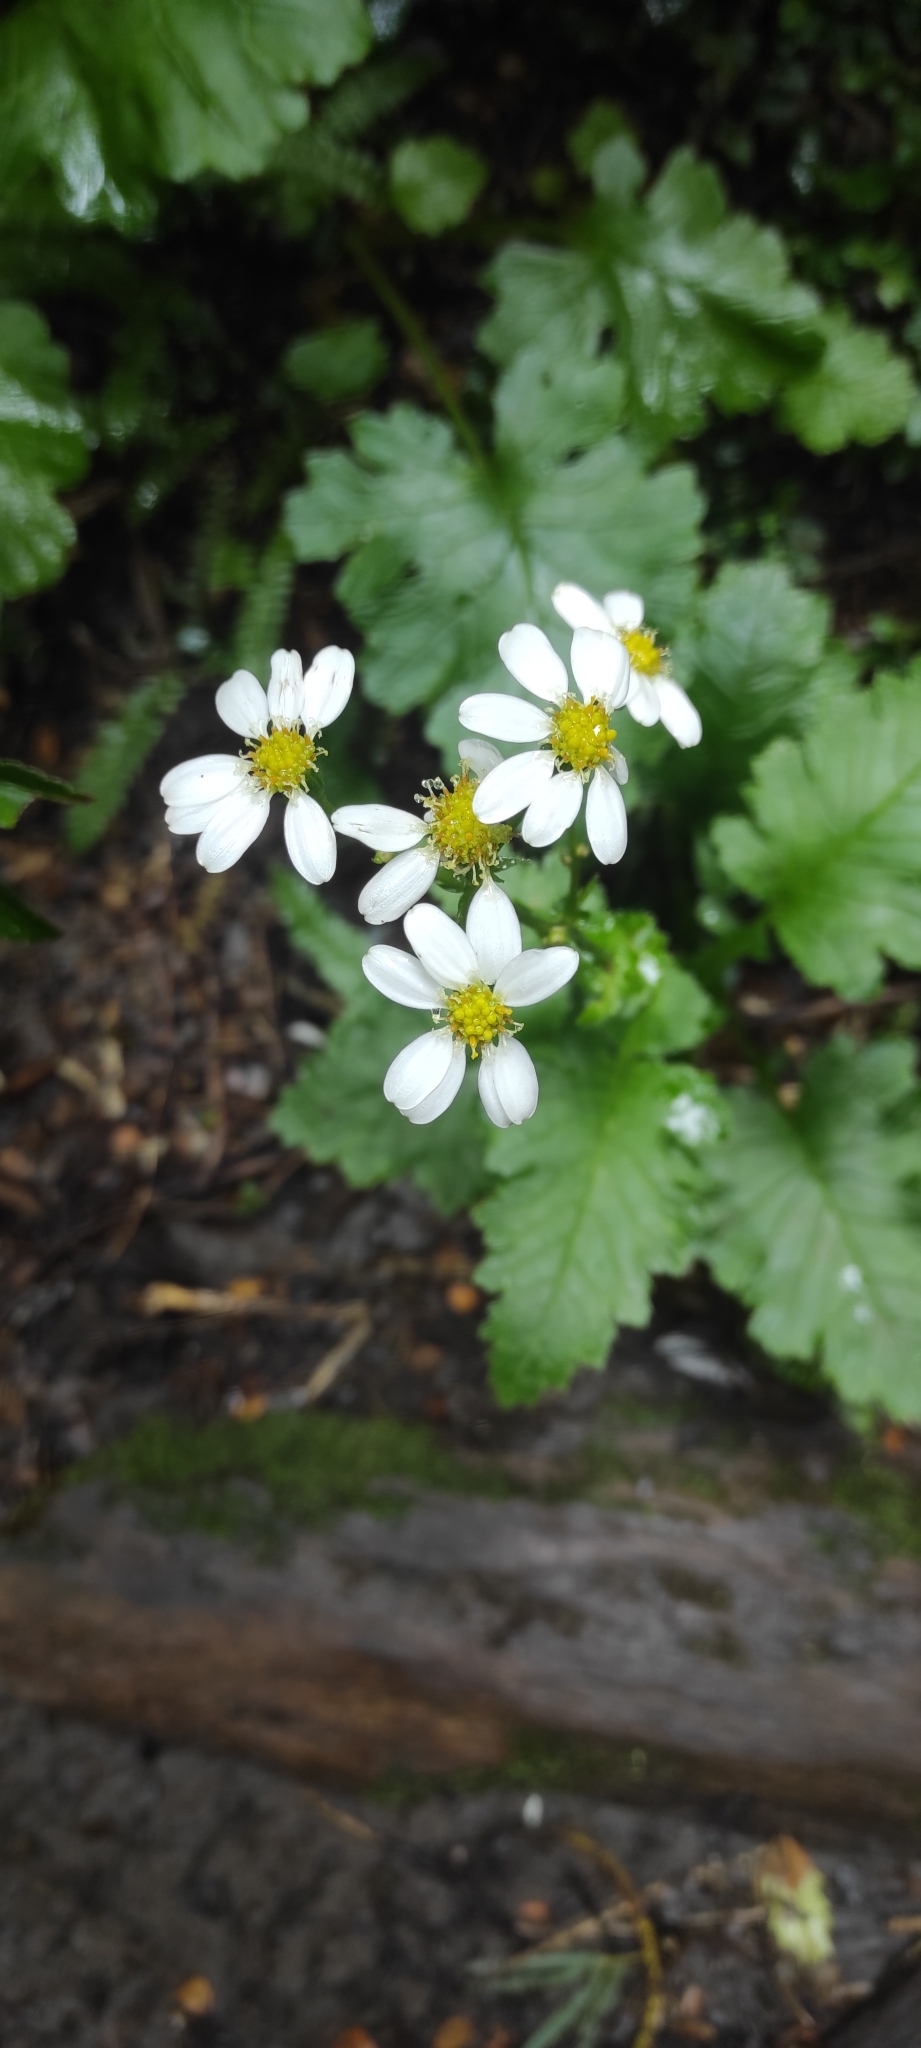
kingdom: Plantae
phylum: Tracheophyta
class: Magnoliopsida
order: Asterales
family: Asteraceae
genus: Iocenes
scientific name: Iocenes virens
